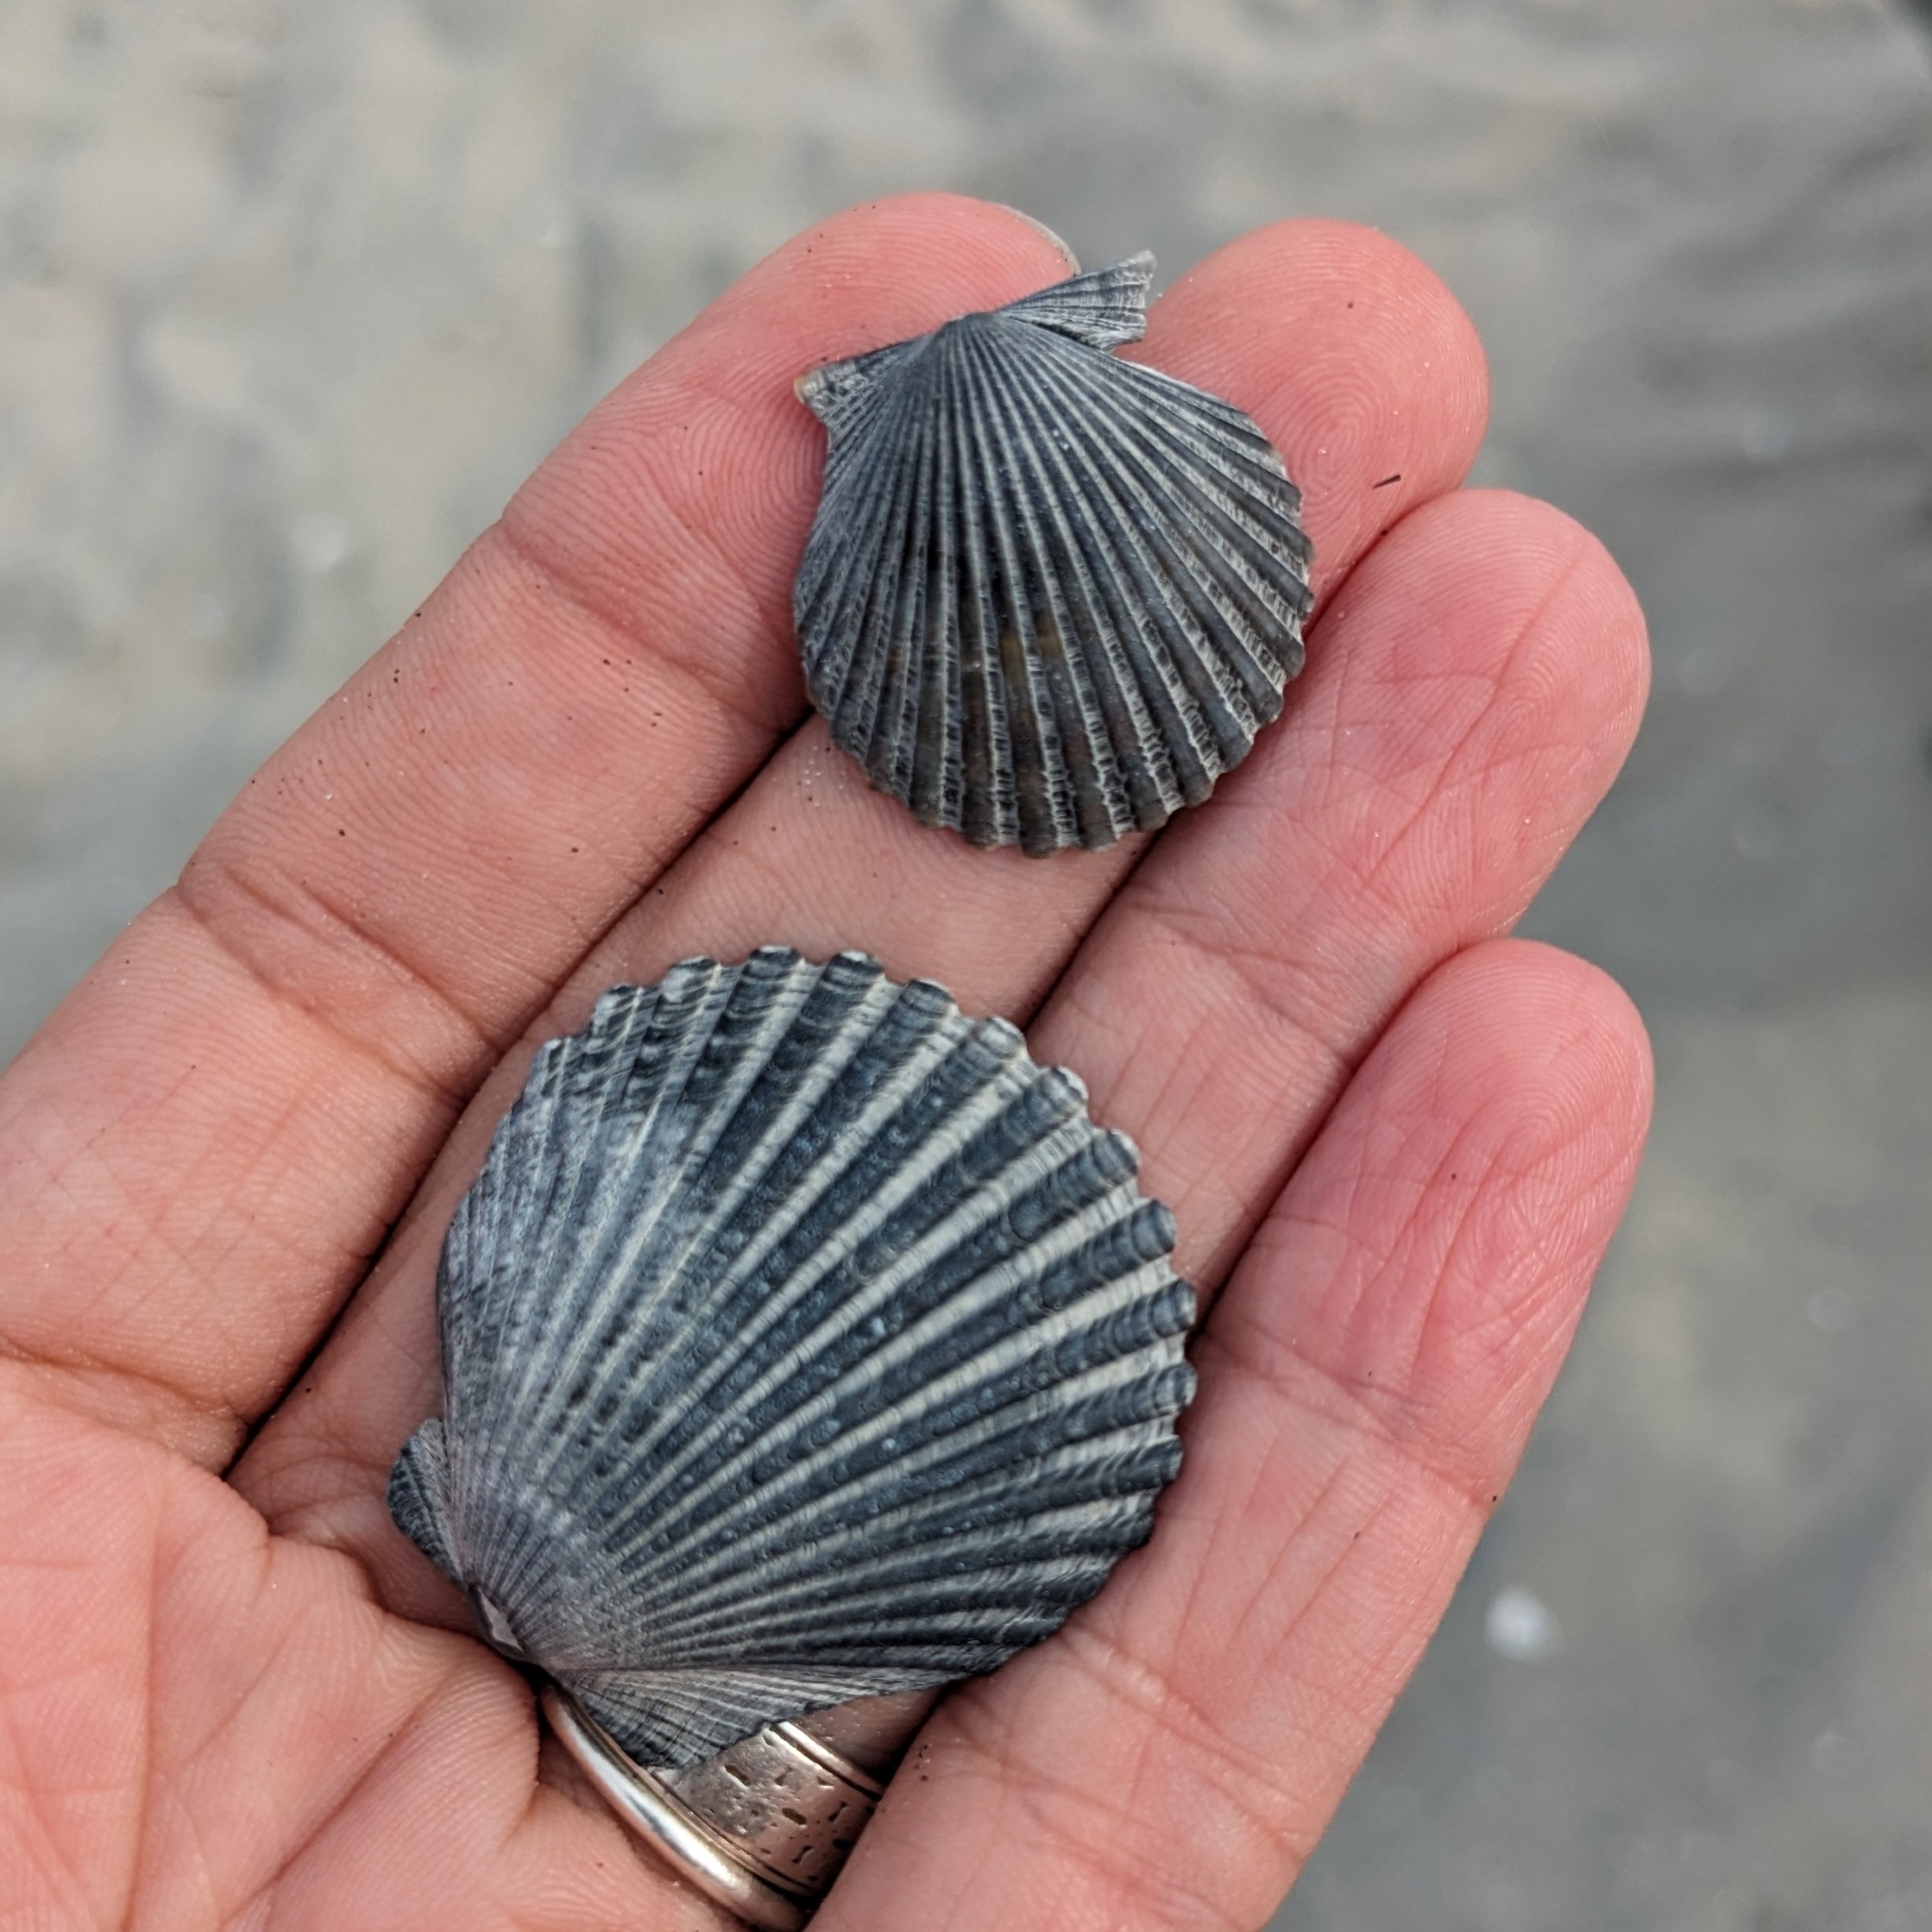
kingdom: Animalia
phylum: Mollusca
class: Bivalvia
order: Pectinida
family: Pectinidae
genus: Argopecten
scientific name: Argopecten irradians
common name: Atlantic bay scallop
